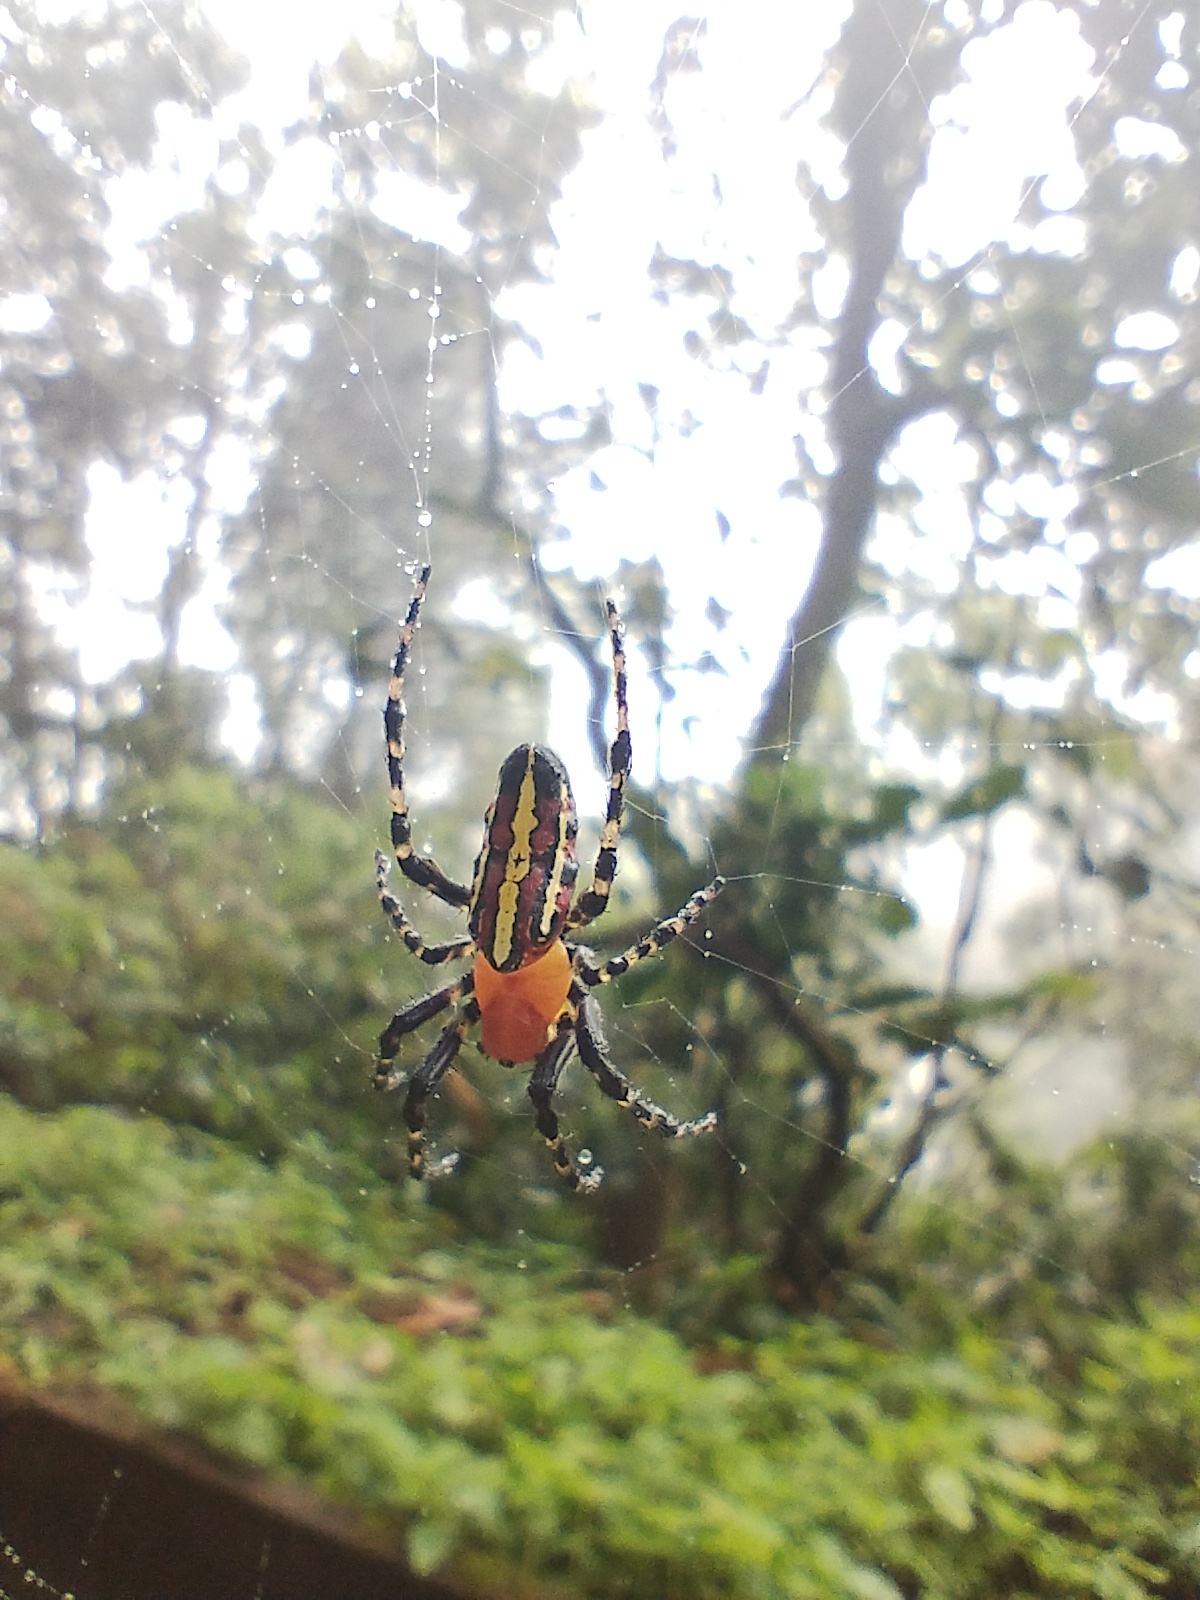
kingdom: Animalia
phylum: Arthropoda
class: Arachnida
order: Araneae
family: Araneidae
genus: Alpaida
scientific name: Alpaida grayi
